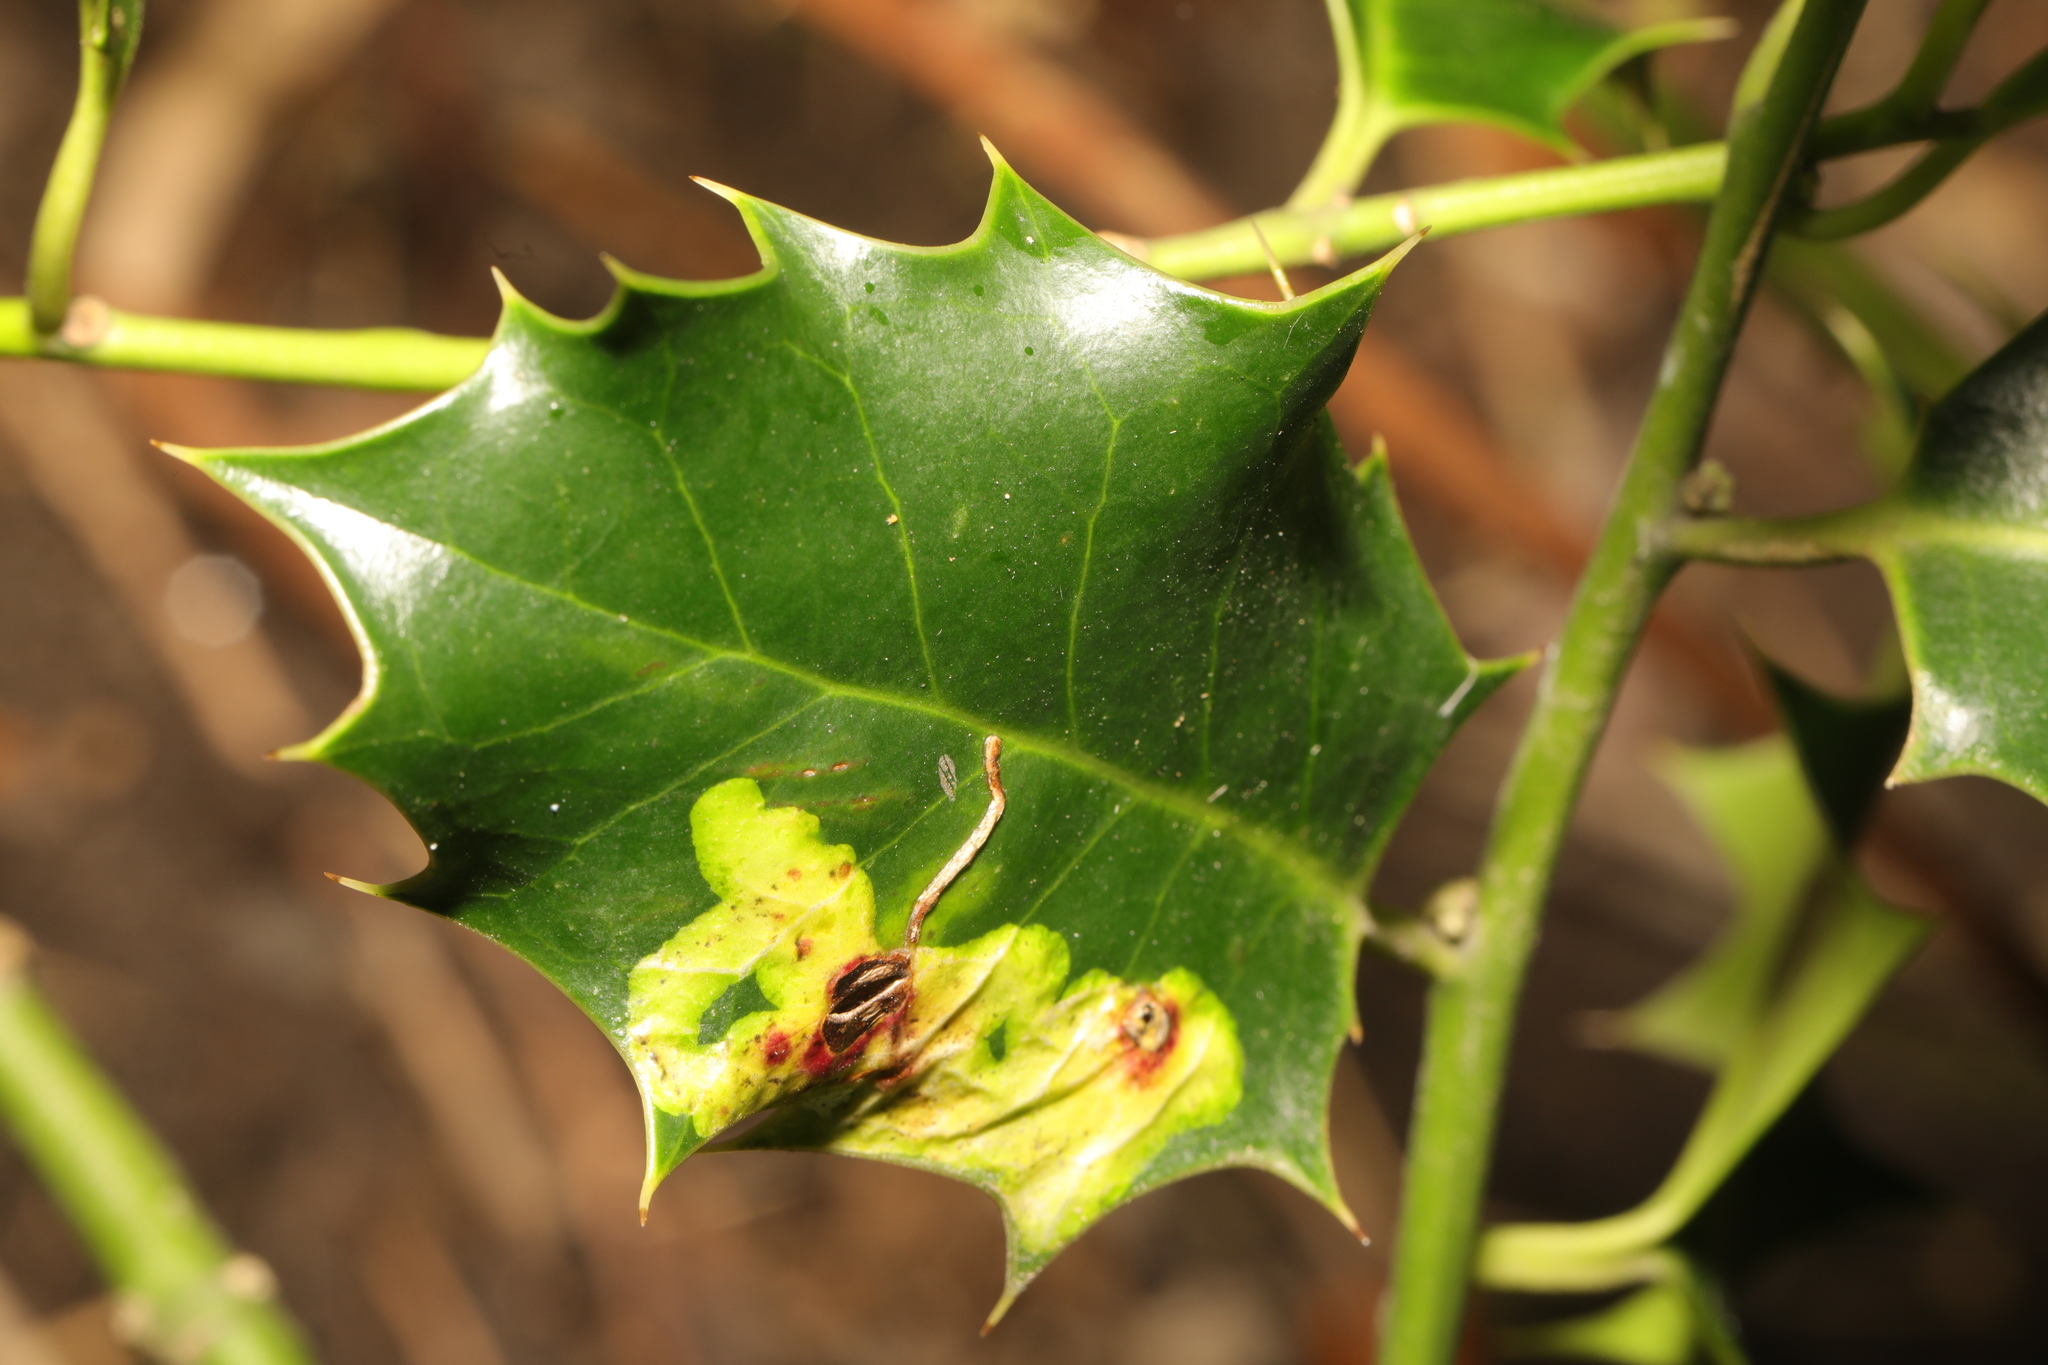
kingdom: Animalia
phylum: Arthropoda
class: Insecta
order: Diptera
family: Agromyzidae
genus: Phytomyza
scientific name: Phytomyza ilicis
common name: Holly leafminer
